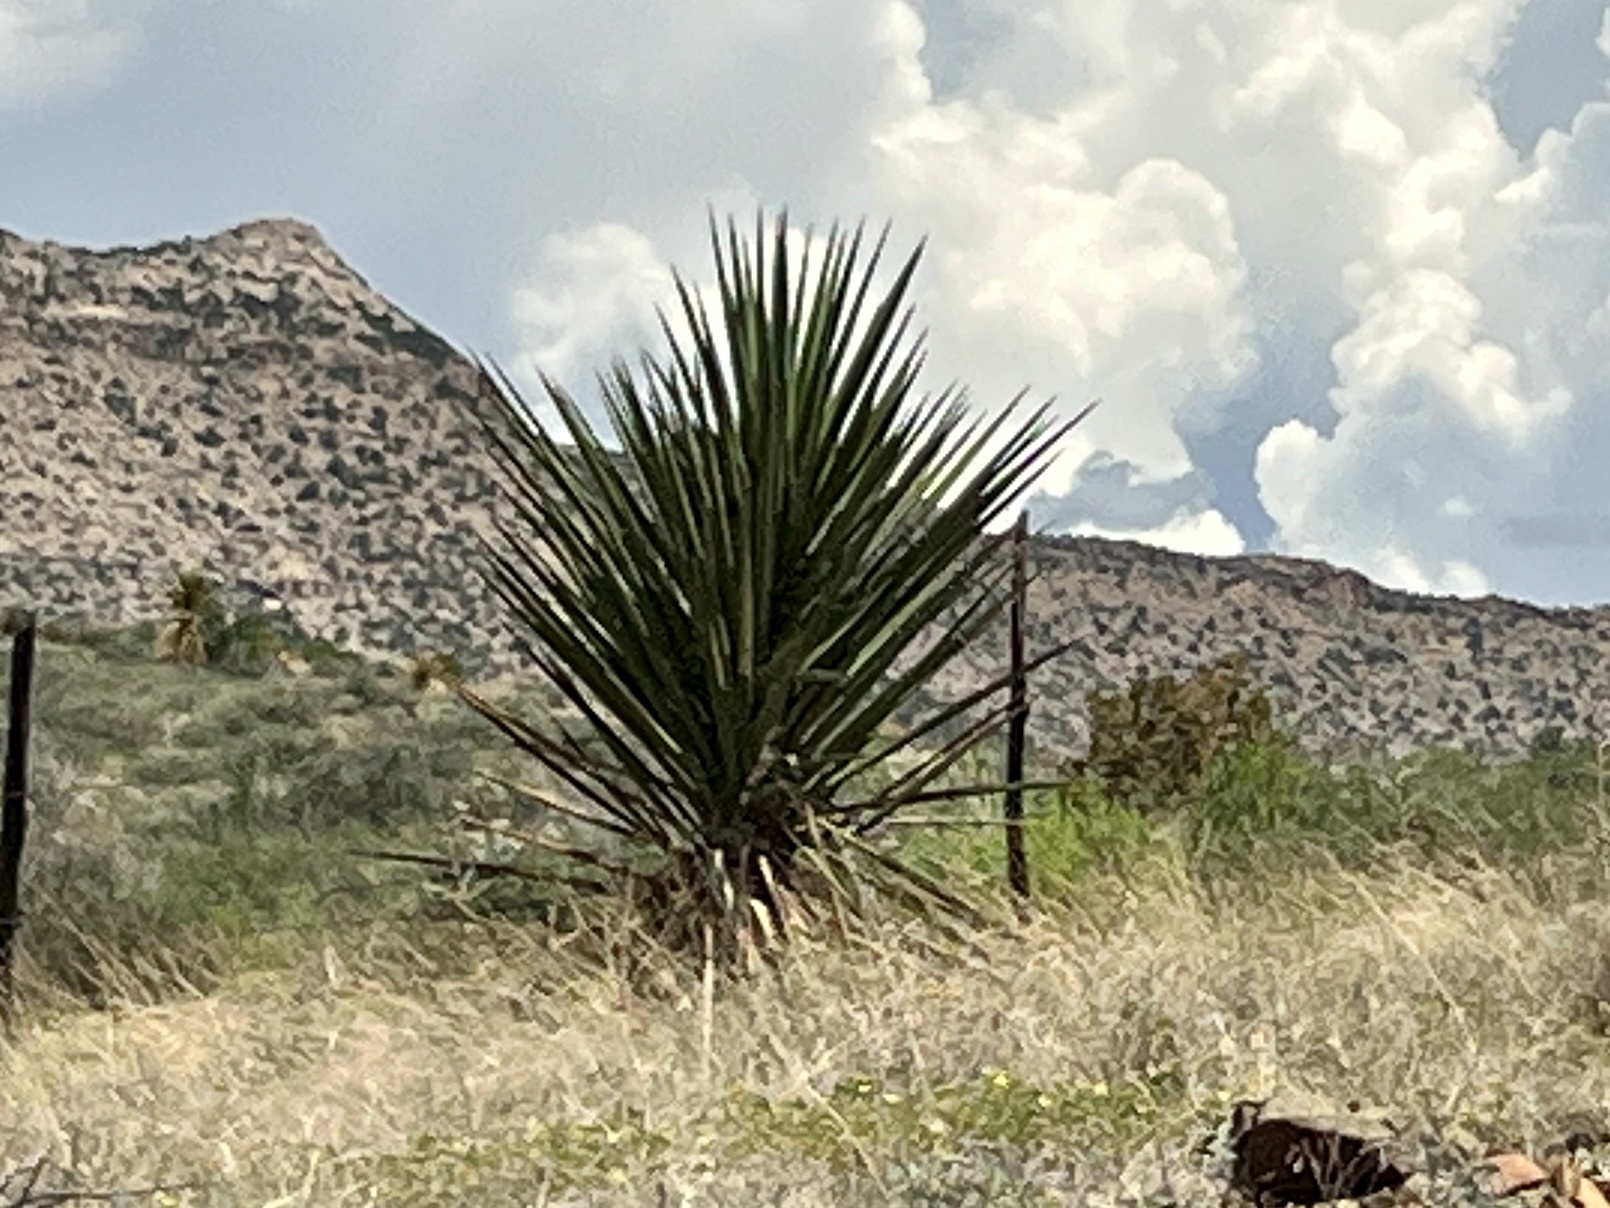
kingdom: Plantae
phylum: Tracheophyta
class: Liliopsida
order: Asparagales
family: Asparagaceae
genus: Yucca
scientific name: Yucca treculiana
